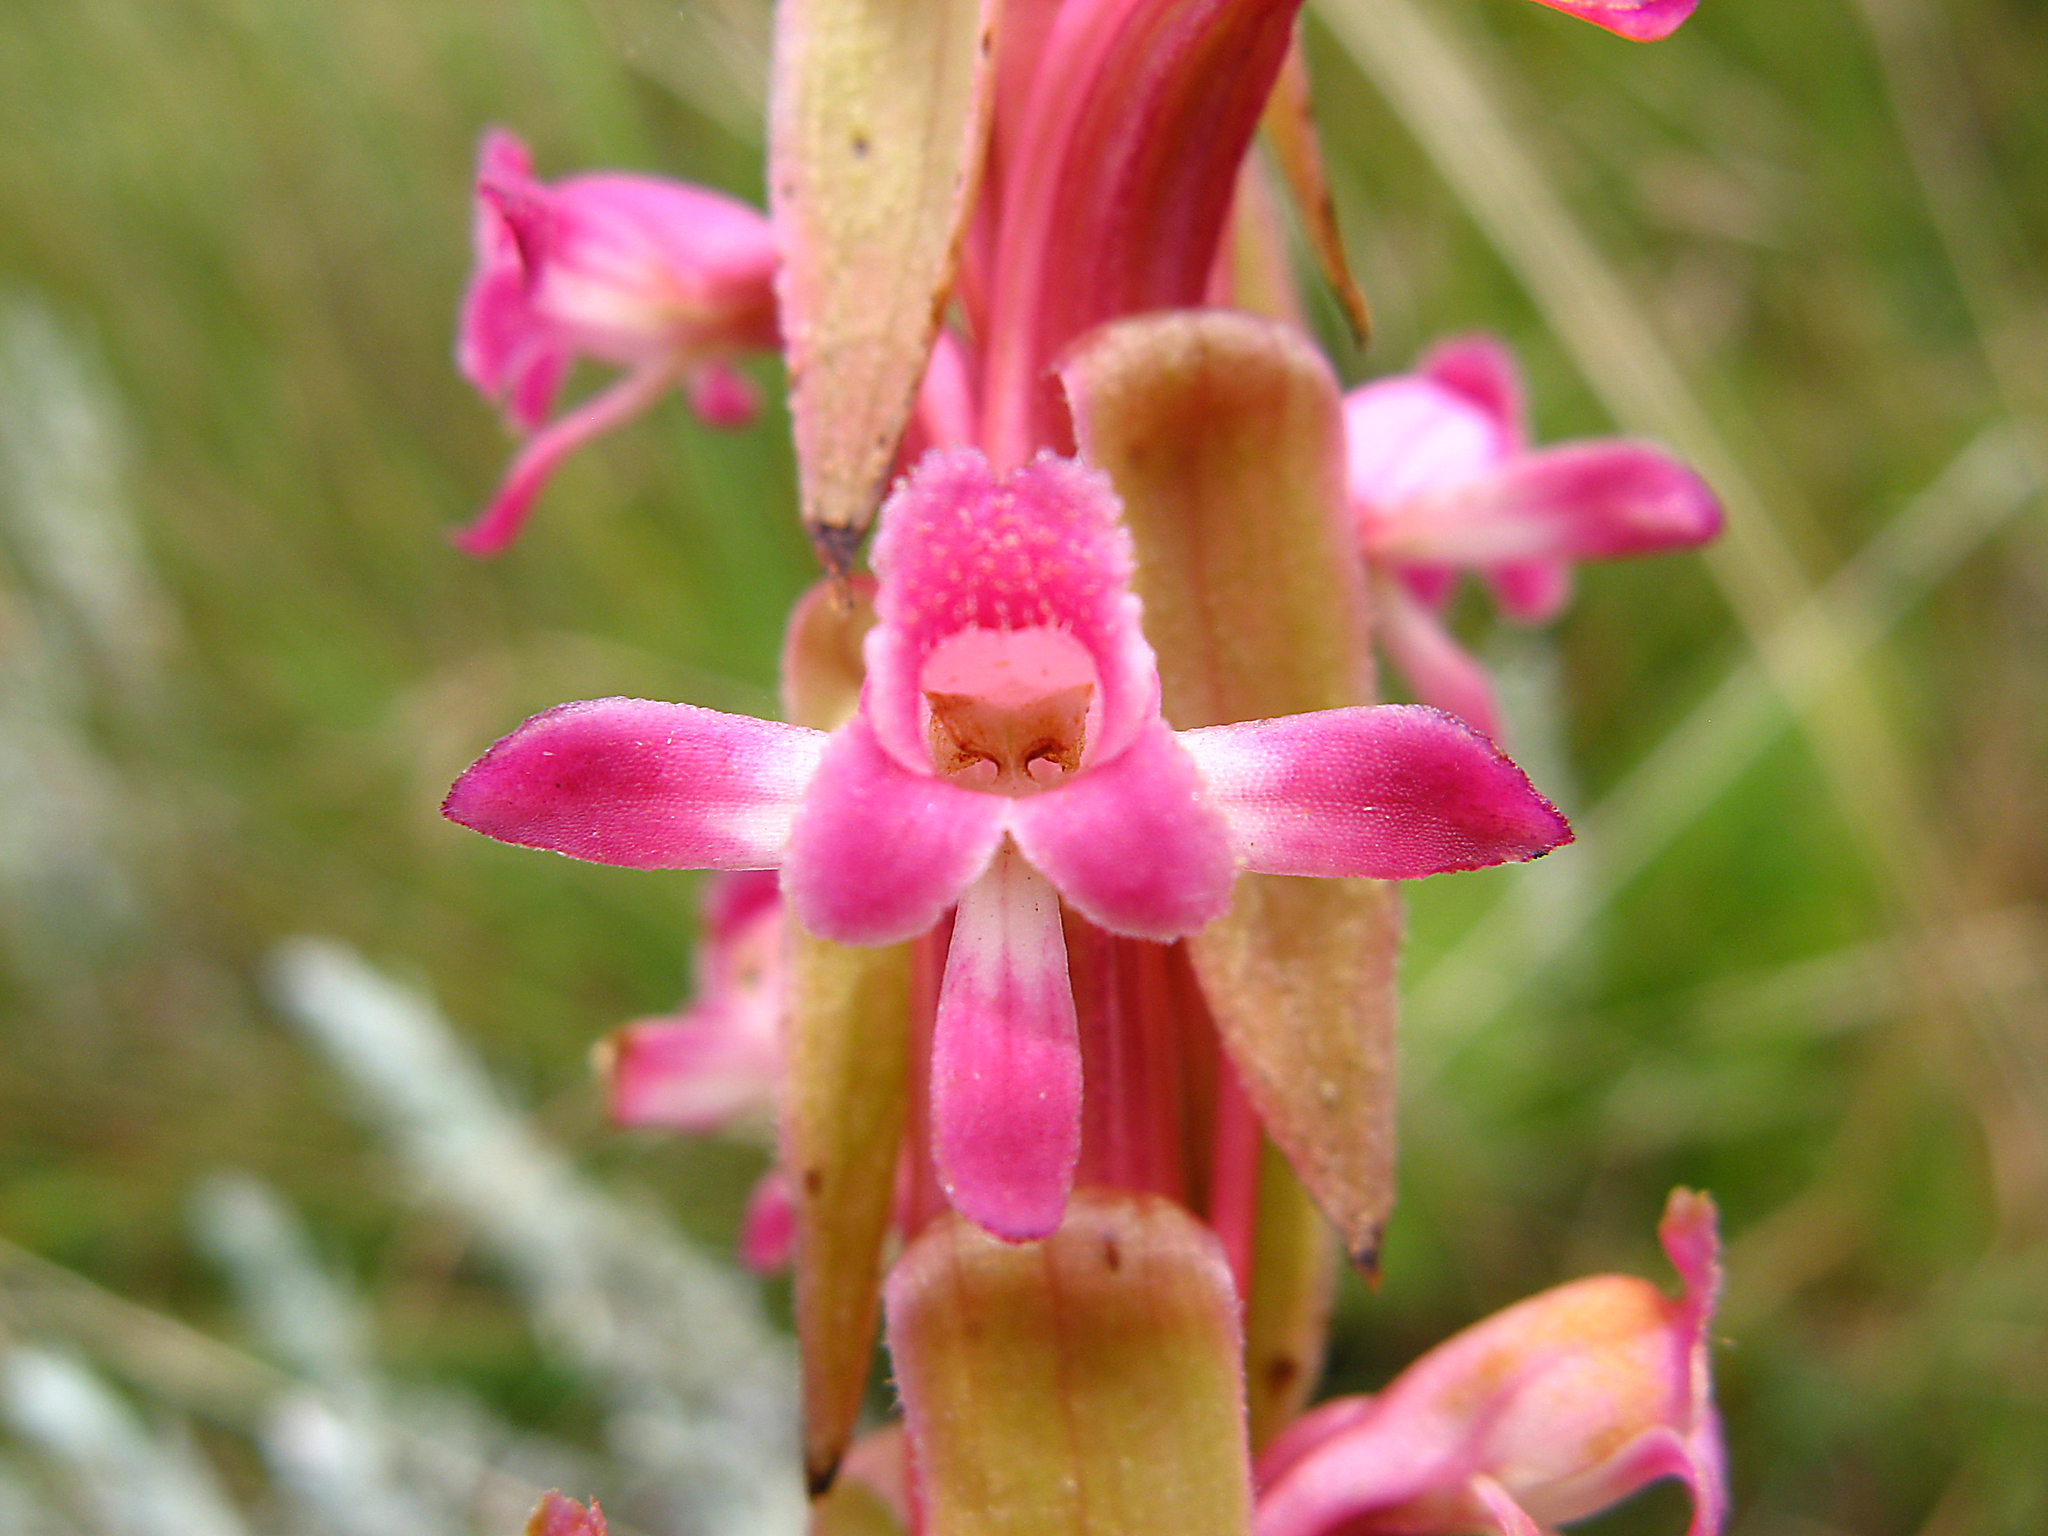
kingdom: Plantae
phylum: Tracheophyta
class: Liliopsida
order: Asparagales
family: Orchidaceae
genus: Satyrium
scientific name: Satyrium longicauda
